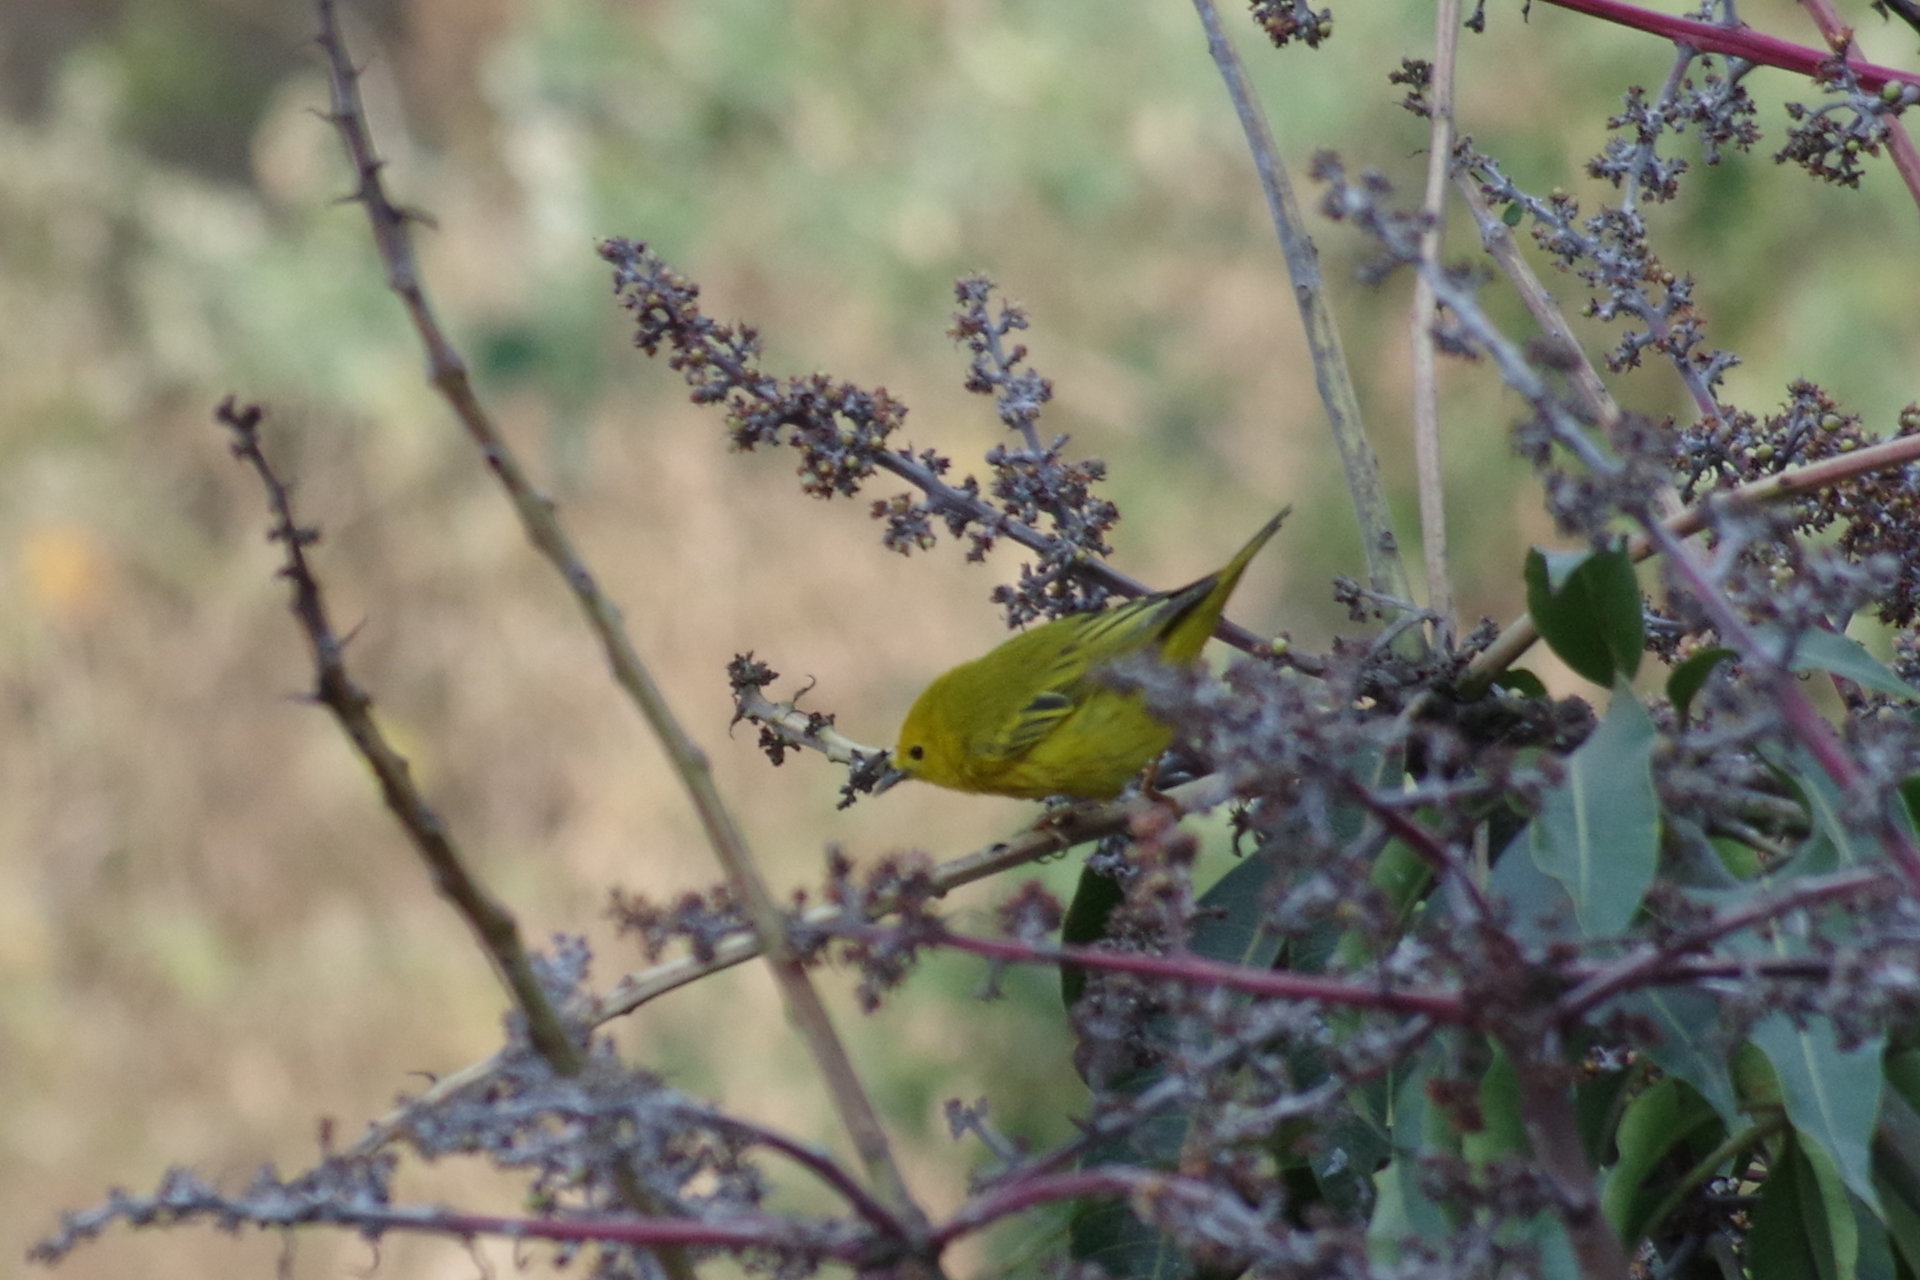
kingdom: Animalia
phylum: Chordata
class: Aves
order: Passeriformes
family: Parulidae
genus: Setophaga
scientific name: Setophaga petechia
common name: Yellow warbler
